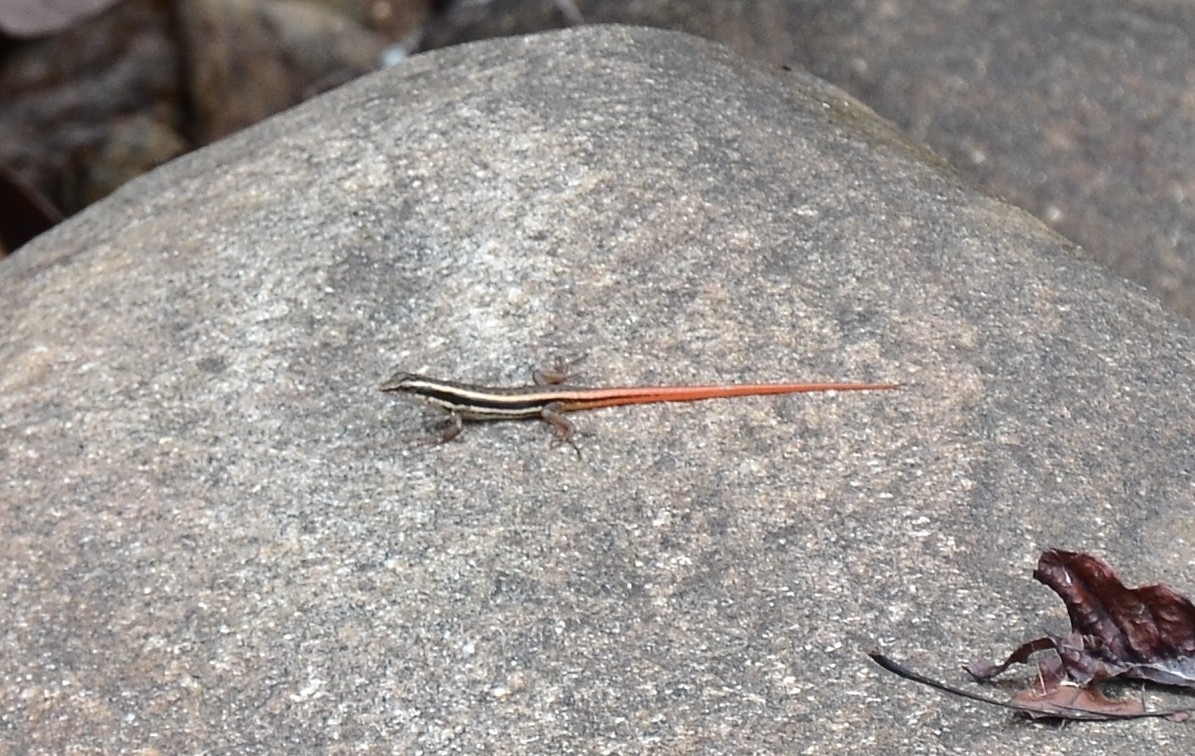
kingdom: Animalia
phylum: Chordata
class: Squamata
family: Scincidae
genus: Sphenomorphus
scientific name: Sphenomorphus dussumieri
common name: Dussumier's forest skink
